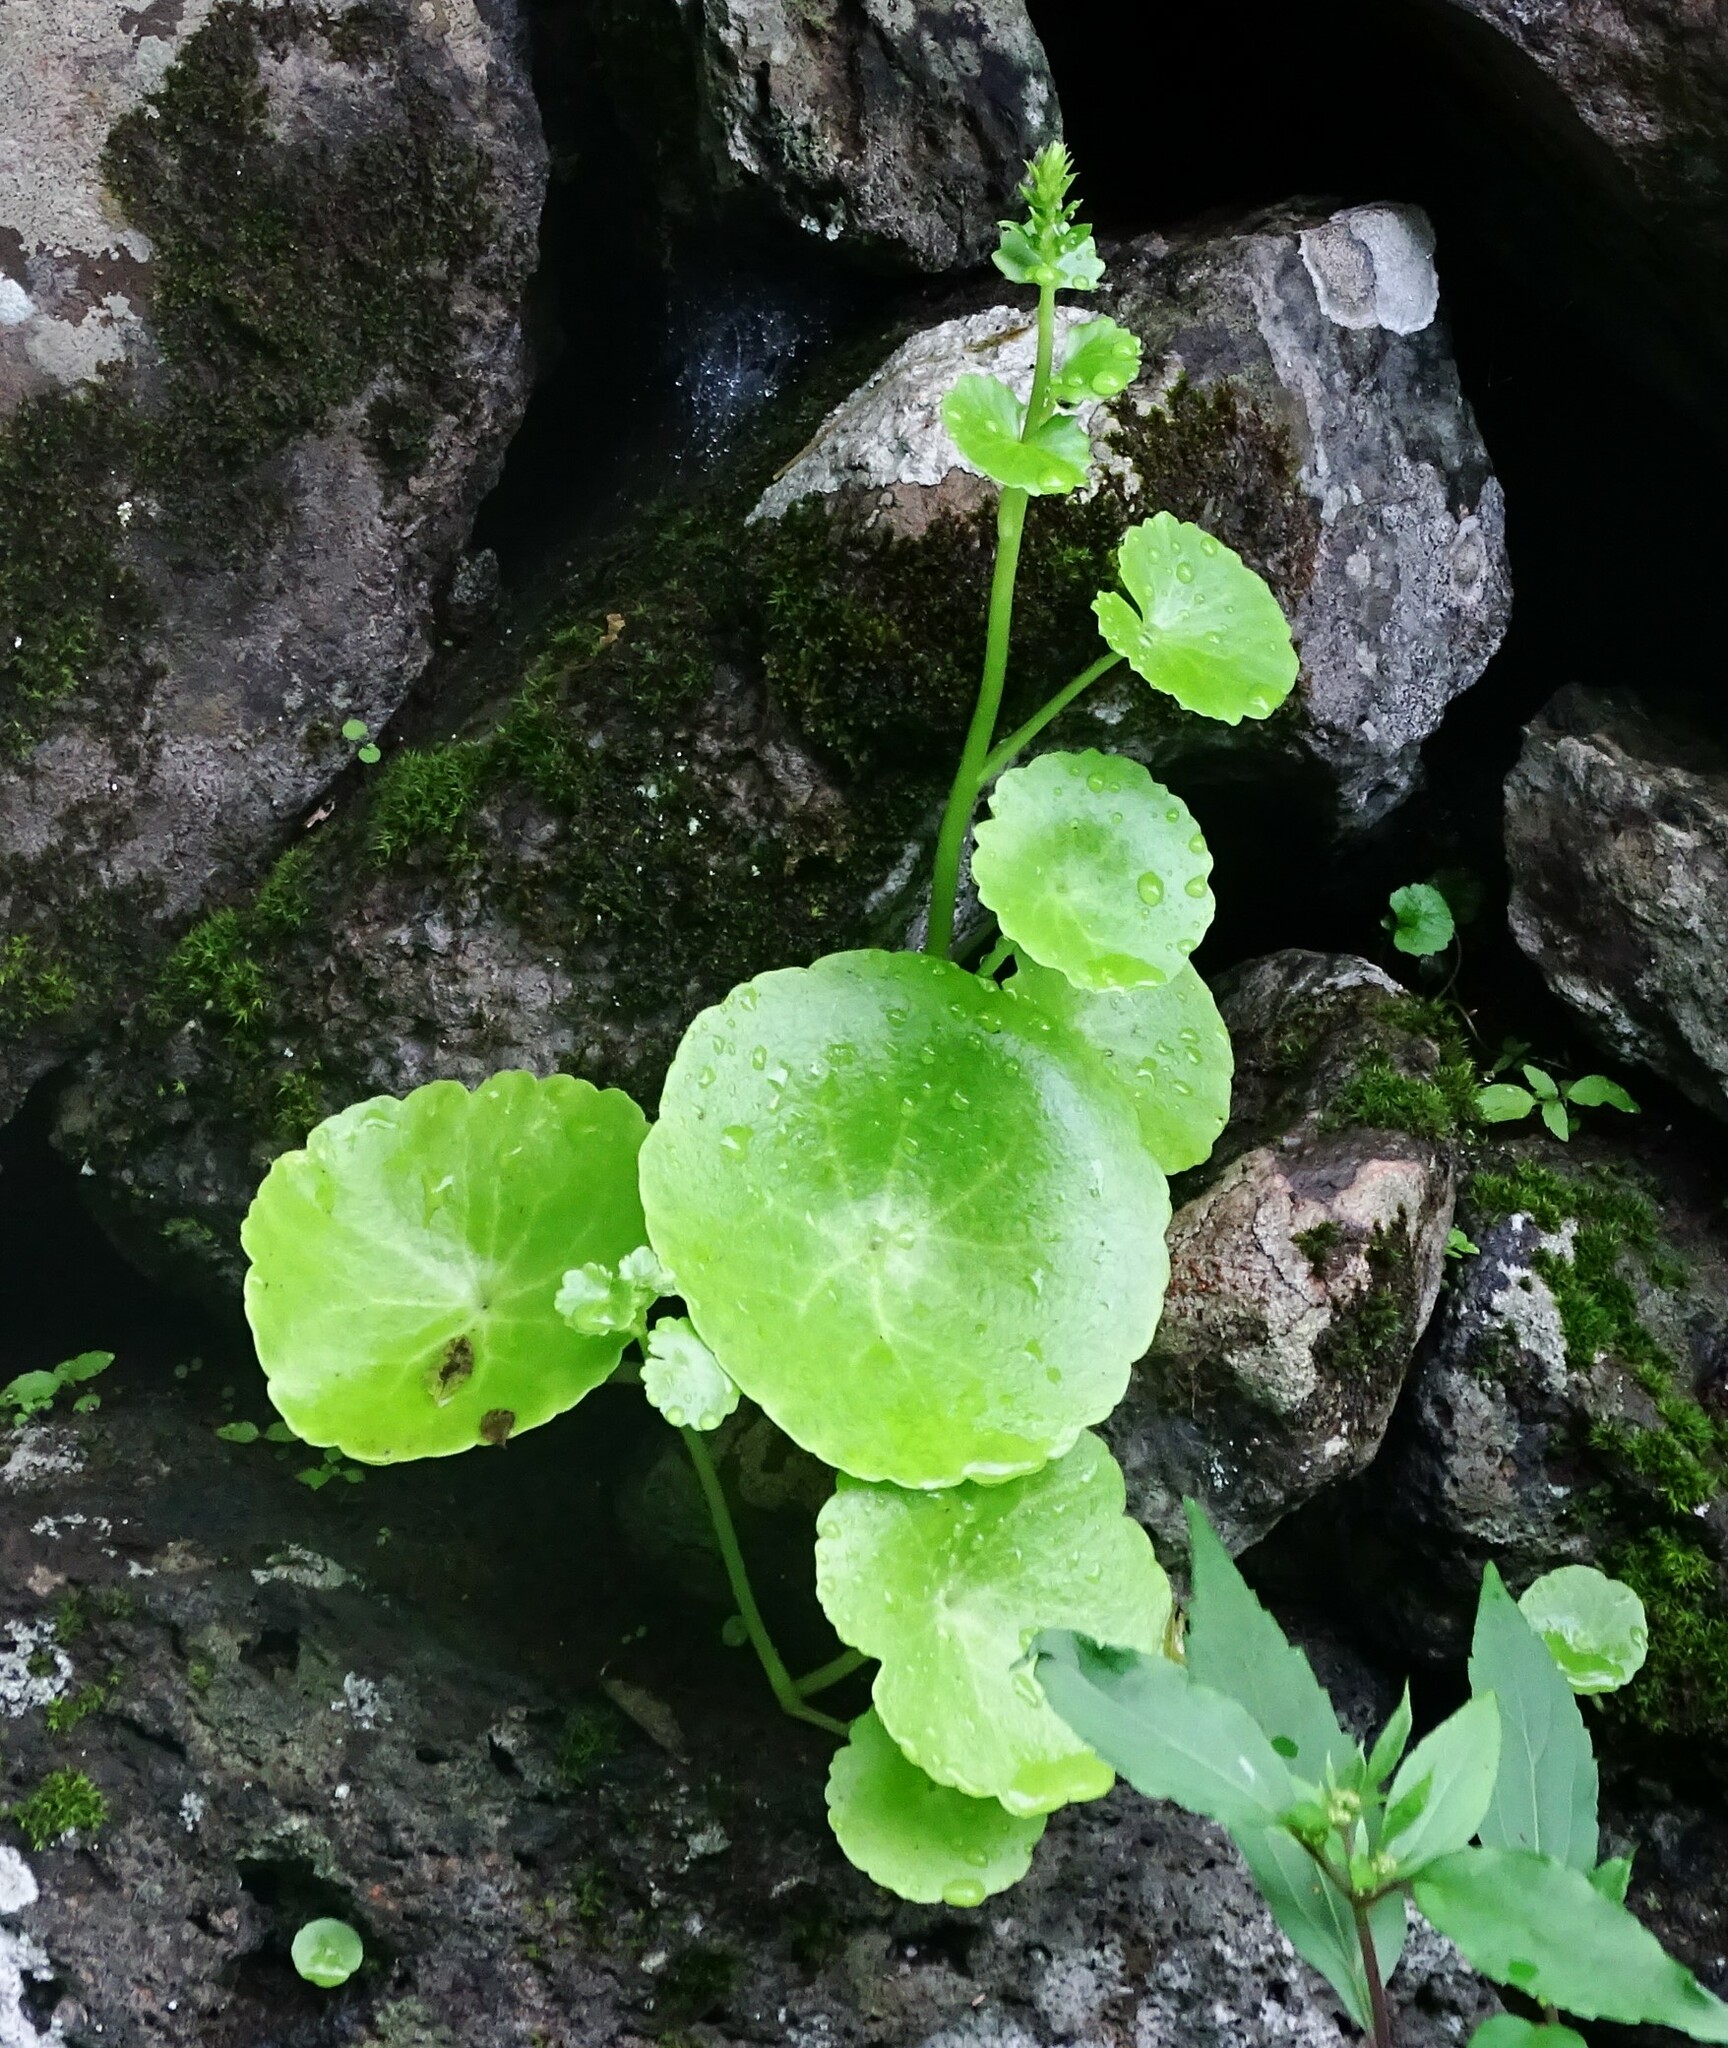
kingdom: Plantae
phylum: Tracheophyta
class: Magnoliopsida
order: Saxifragales
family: Crassulaceae
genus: Umbilicus
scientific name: Umbilicus horizontalis
